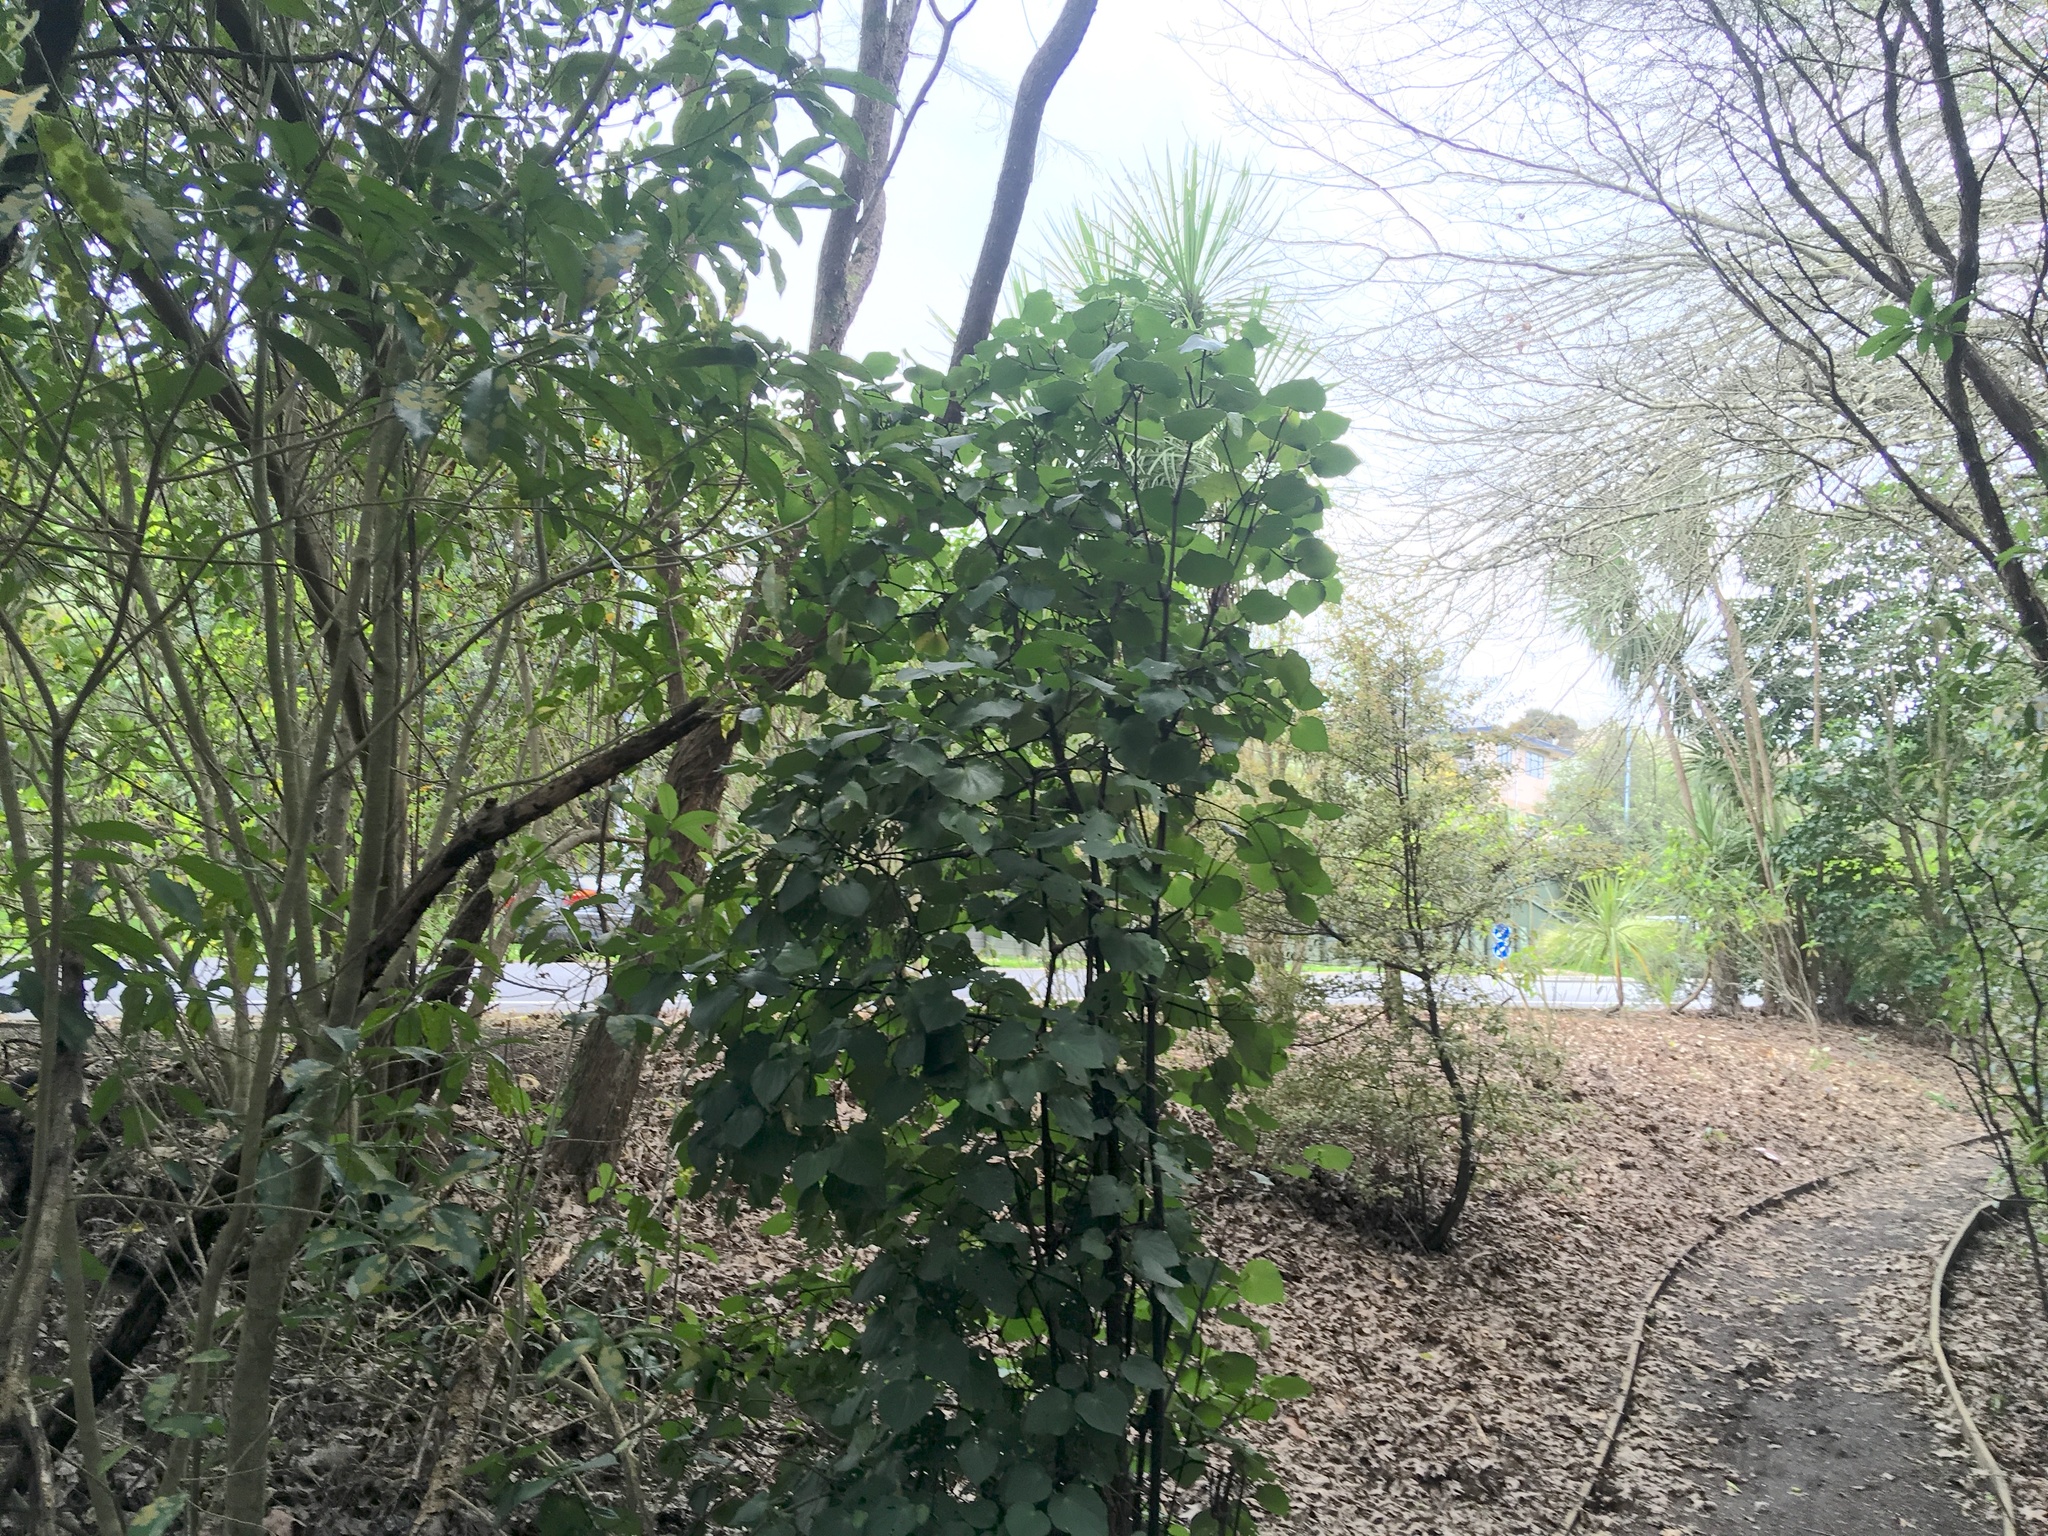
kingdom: Plantae
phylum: Tracheophyta
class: Magnoliopsida
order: Piperales
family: Piperaceae
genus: Macropiper
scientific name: Macropiper excelsum
